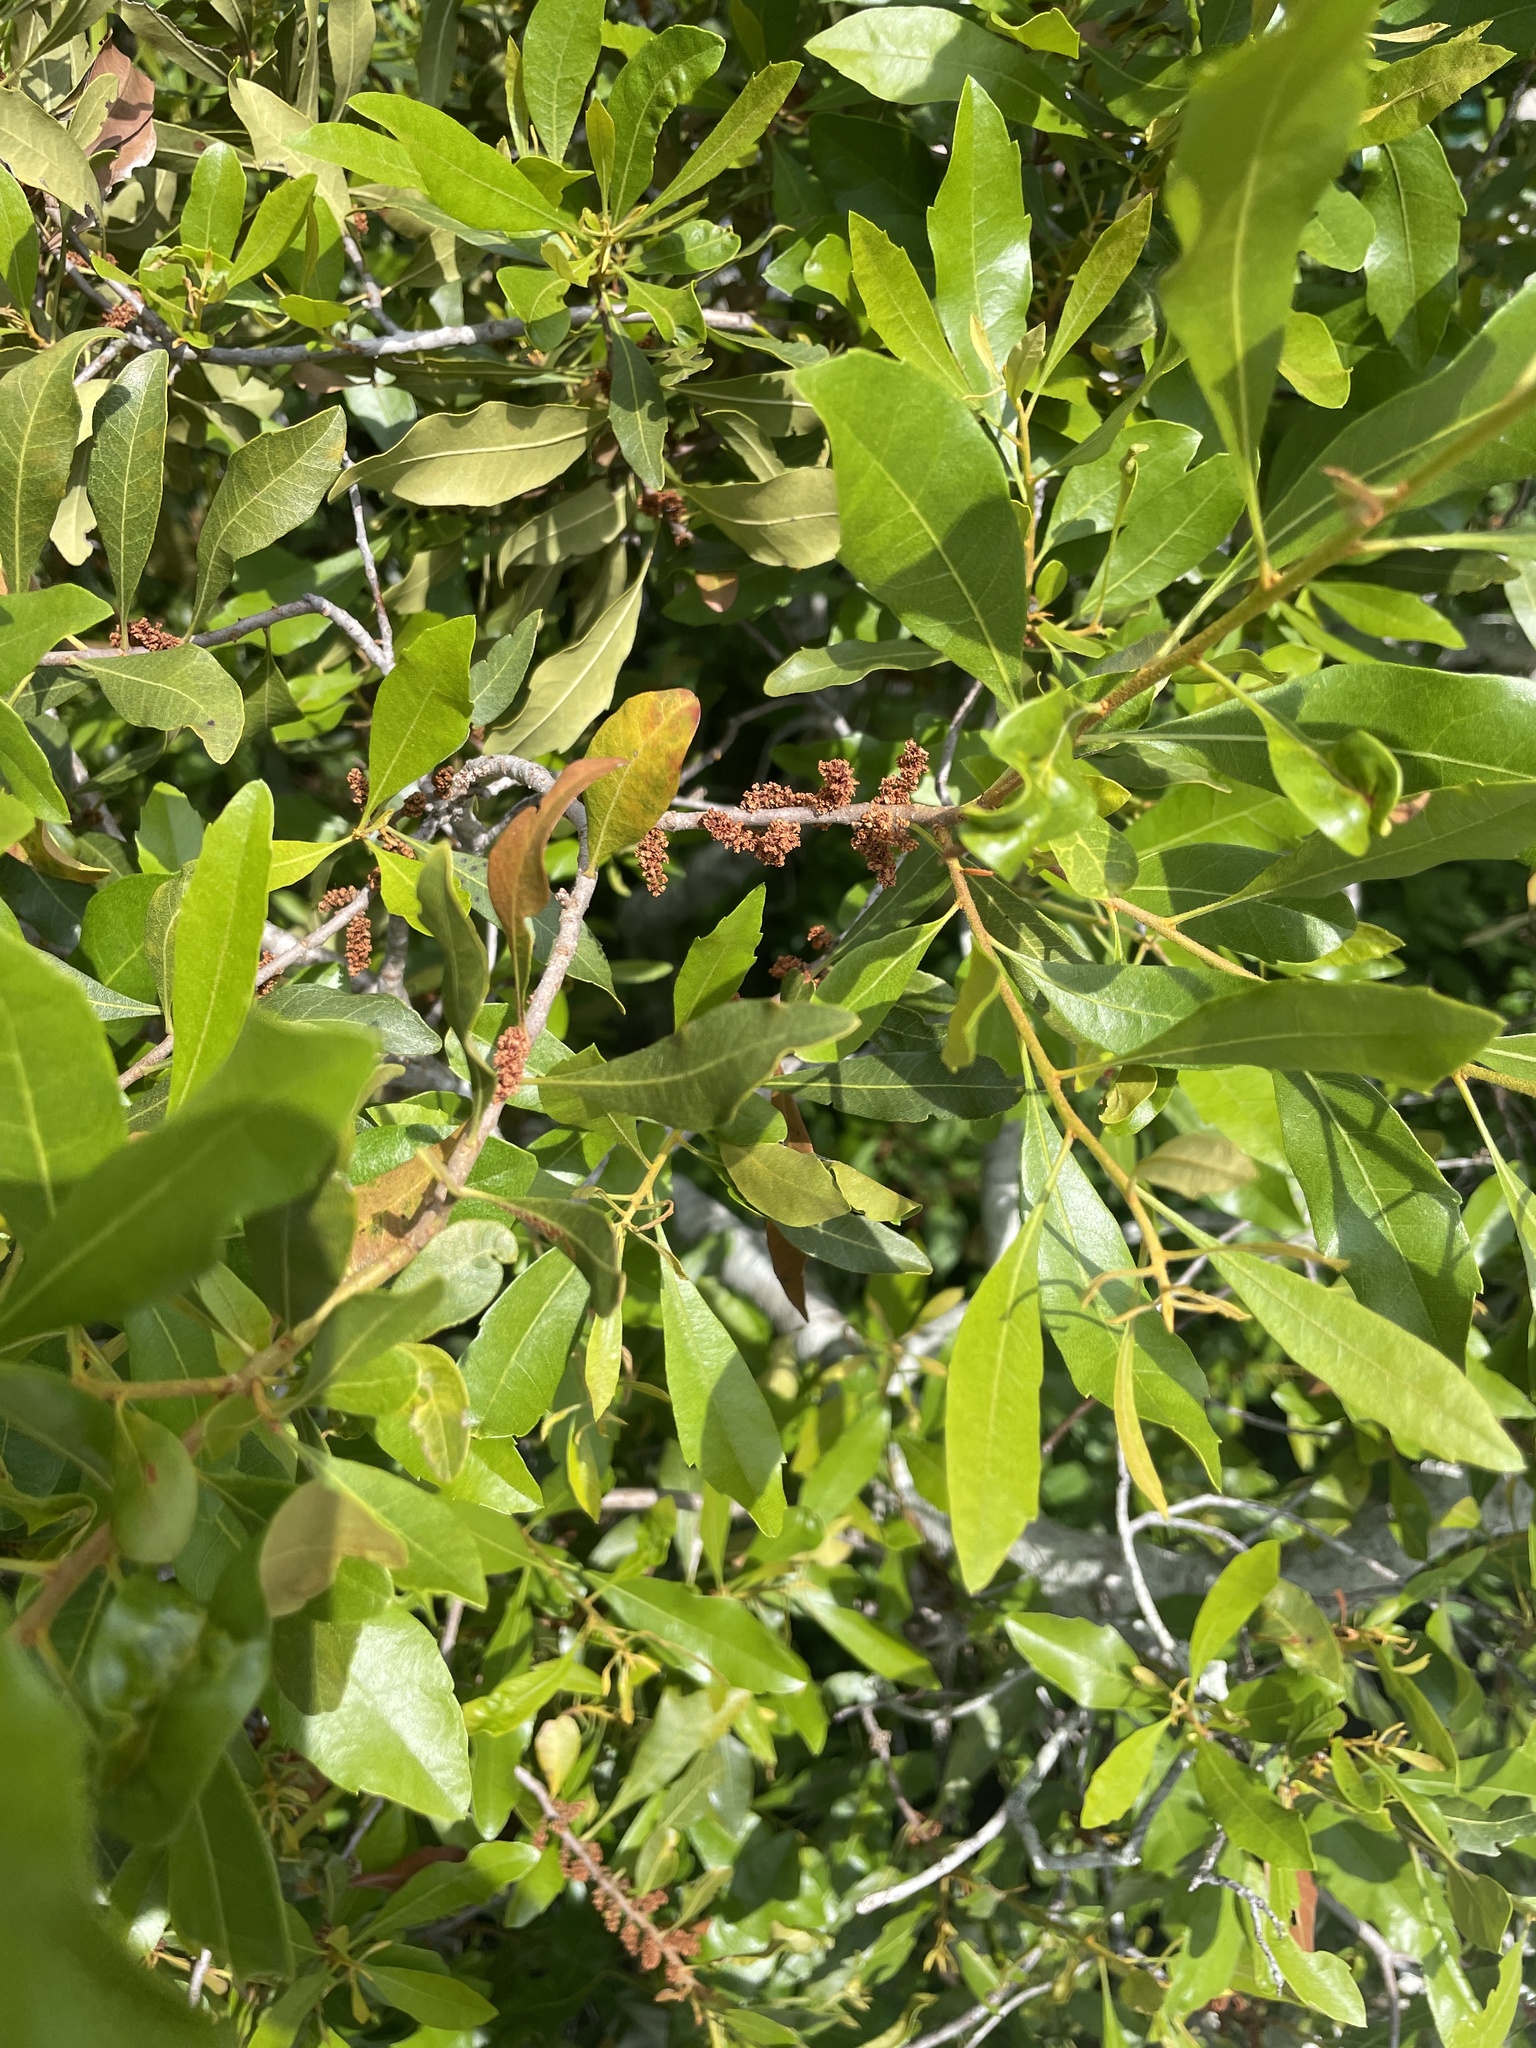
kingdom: Plantae
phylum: Tracheophyta
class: Magnoliopsida
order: Fagales
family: Myricaceae
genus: Morella
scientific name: Morella cerifera
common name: Wax myrtle
